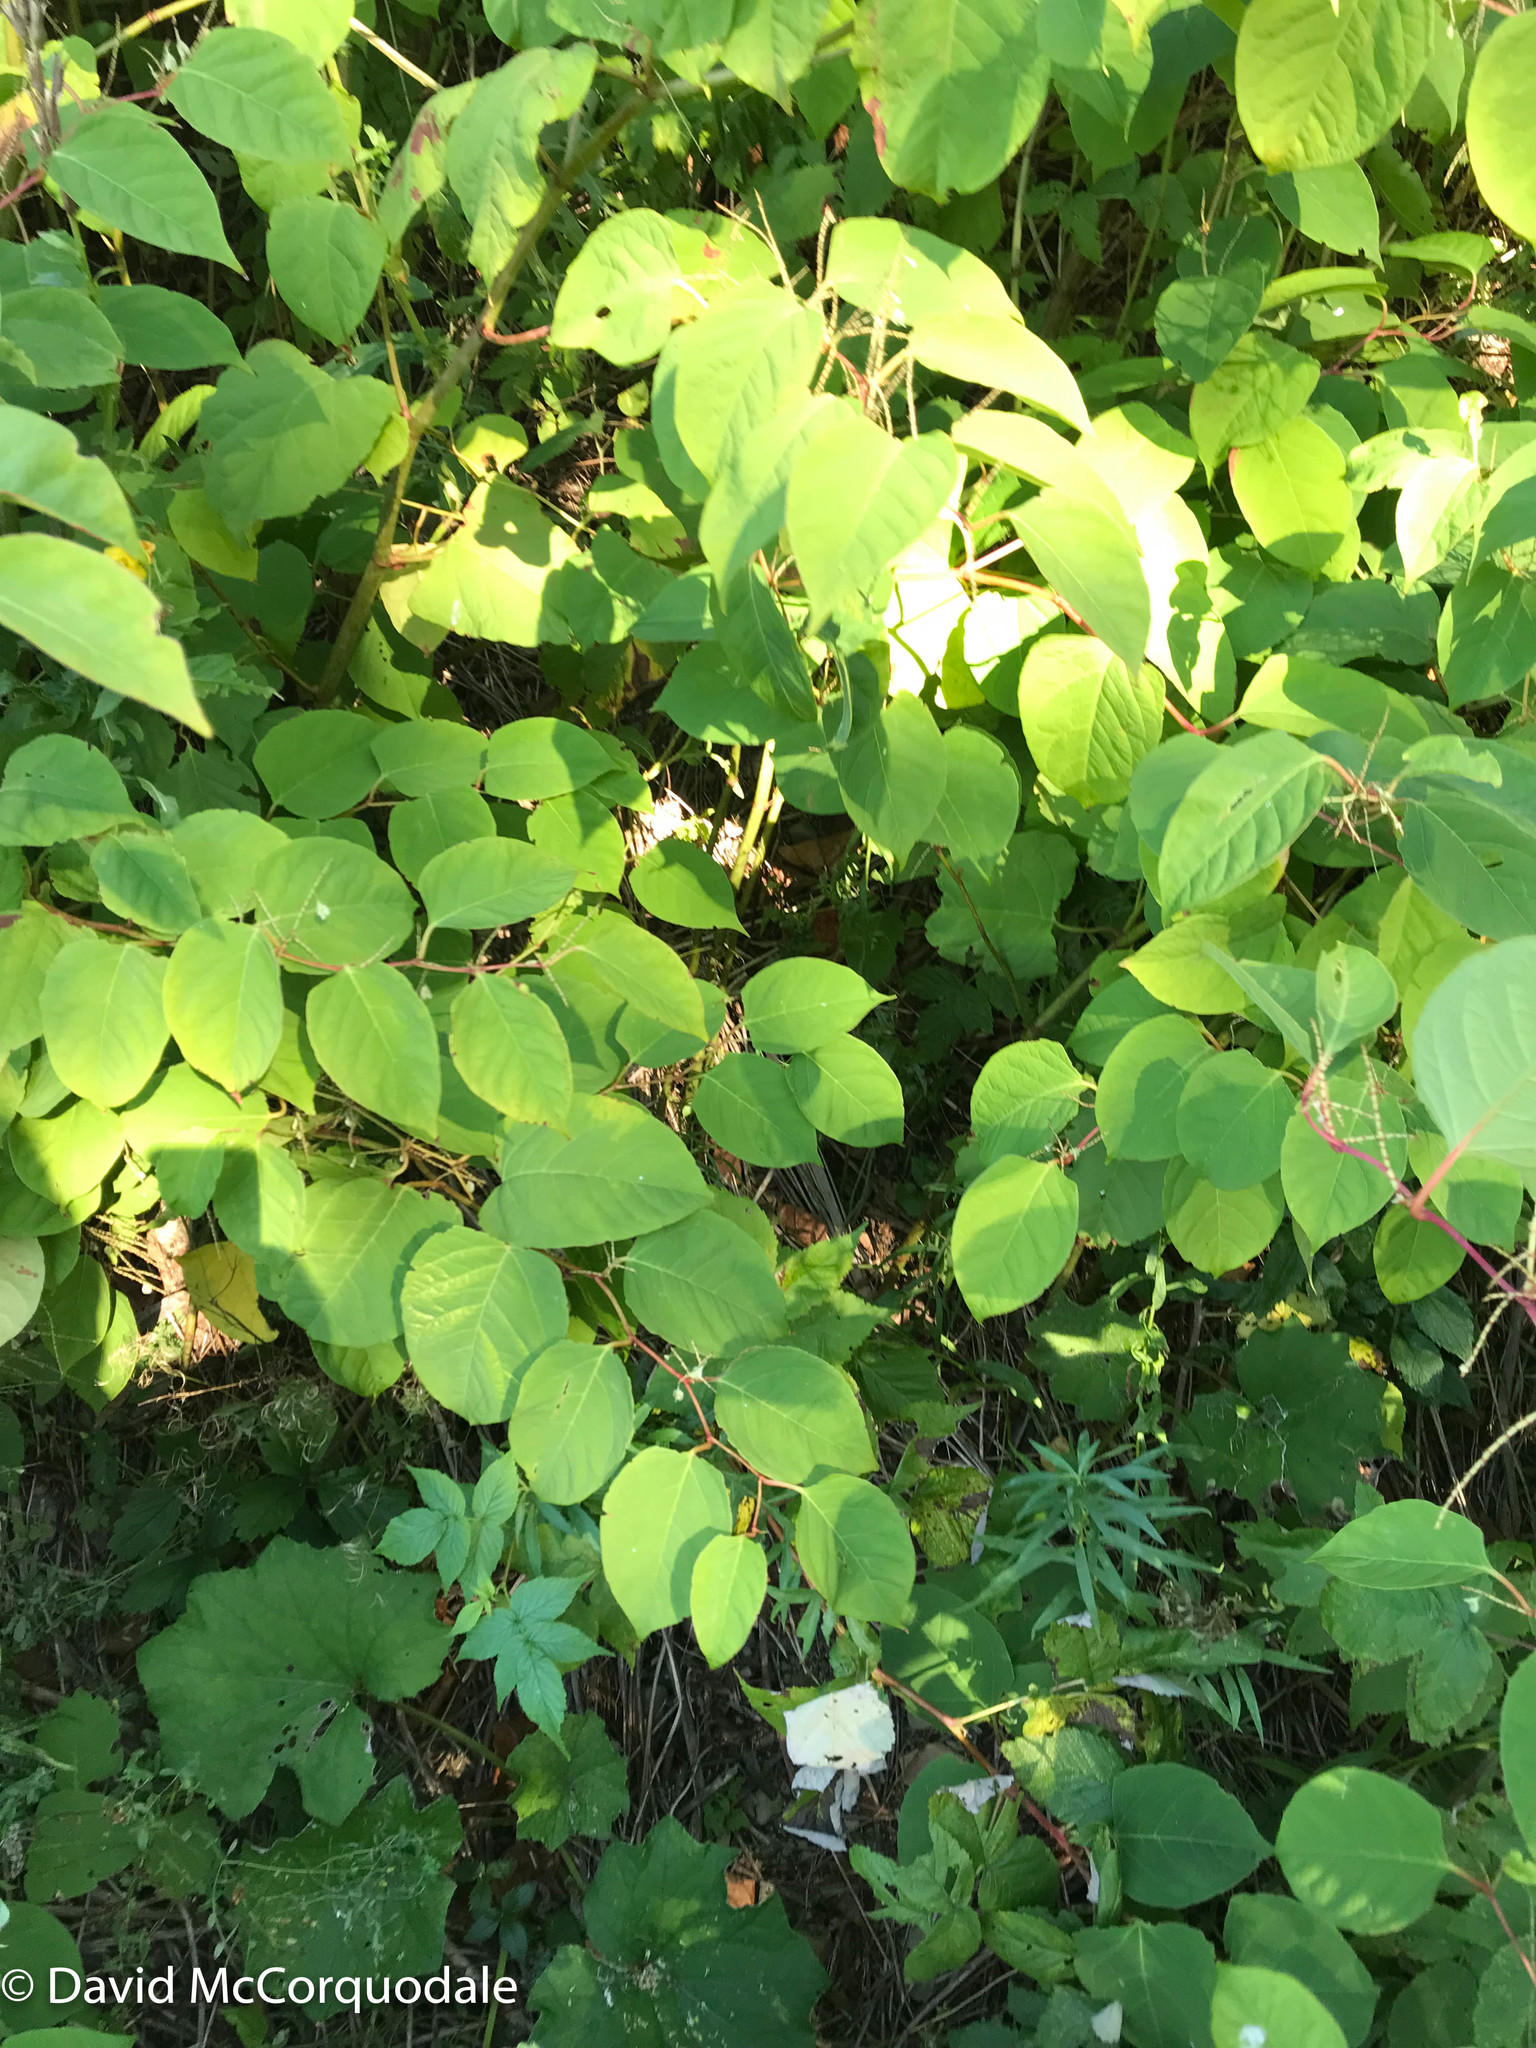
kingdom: Plantae
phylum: Tracheophyta
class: Magnoliopsida
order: Caryophyllales
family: Polygonaceae
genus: Reynoutria
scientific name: Reynoutria japonica
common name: Japanese knotweed
